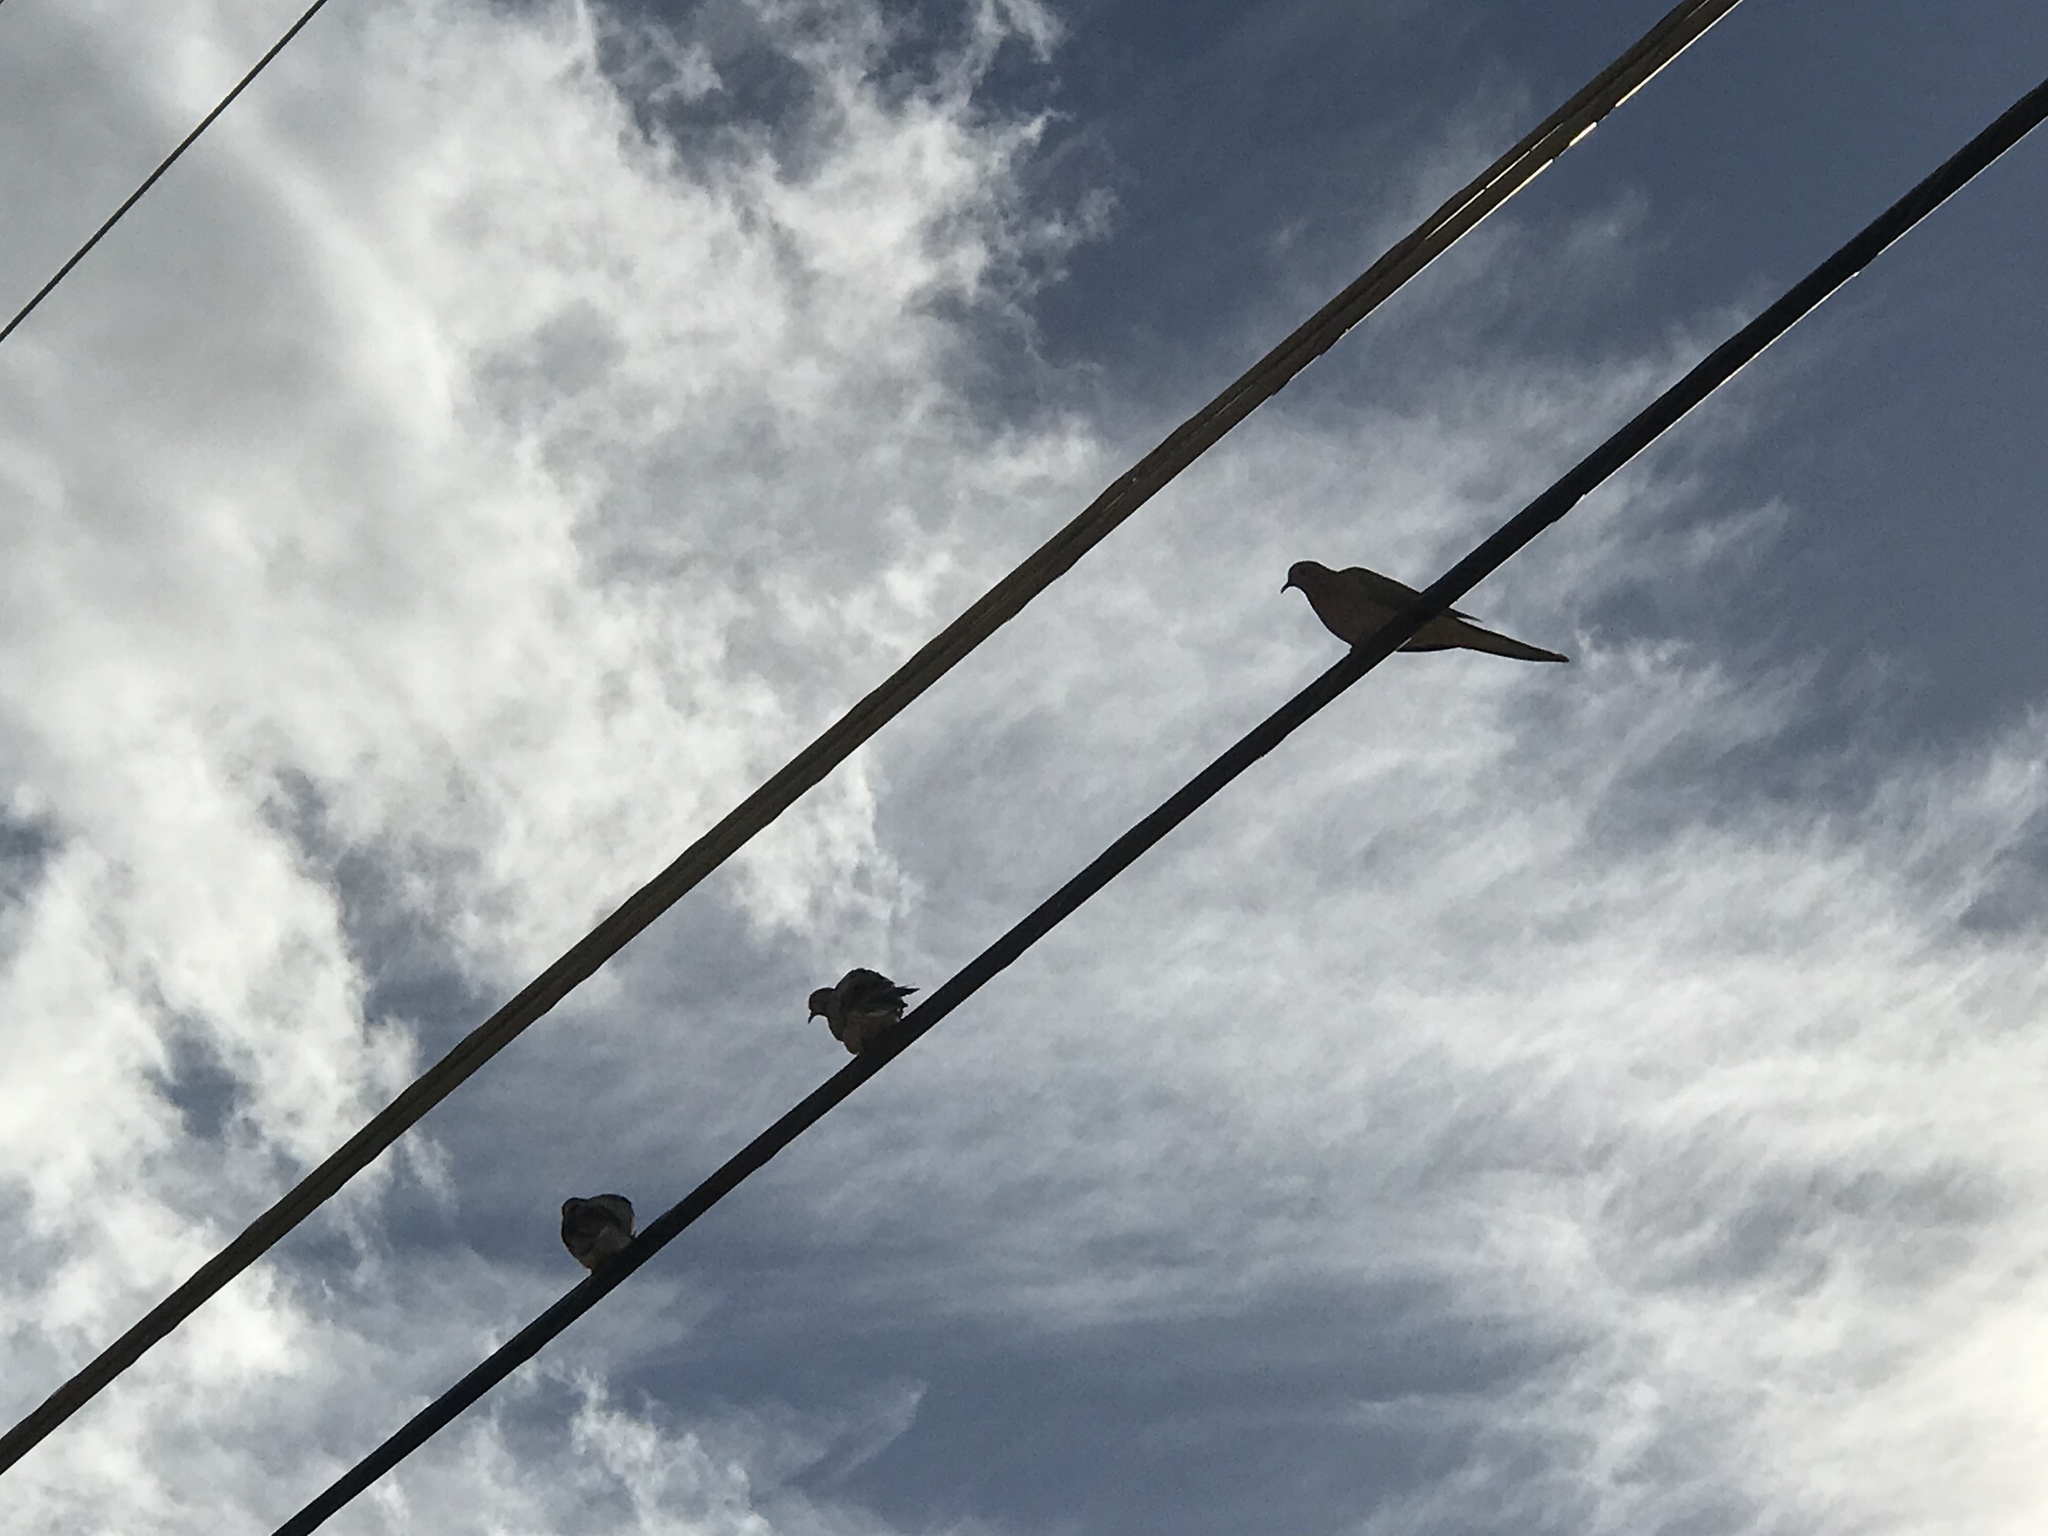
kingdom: Animalia
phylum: Chordata
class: Aves
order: Columbiformes
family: Columbidae
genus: Zenaida
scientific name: Zenaida macroura
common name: Mourning dove
